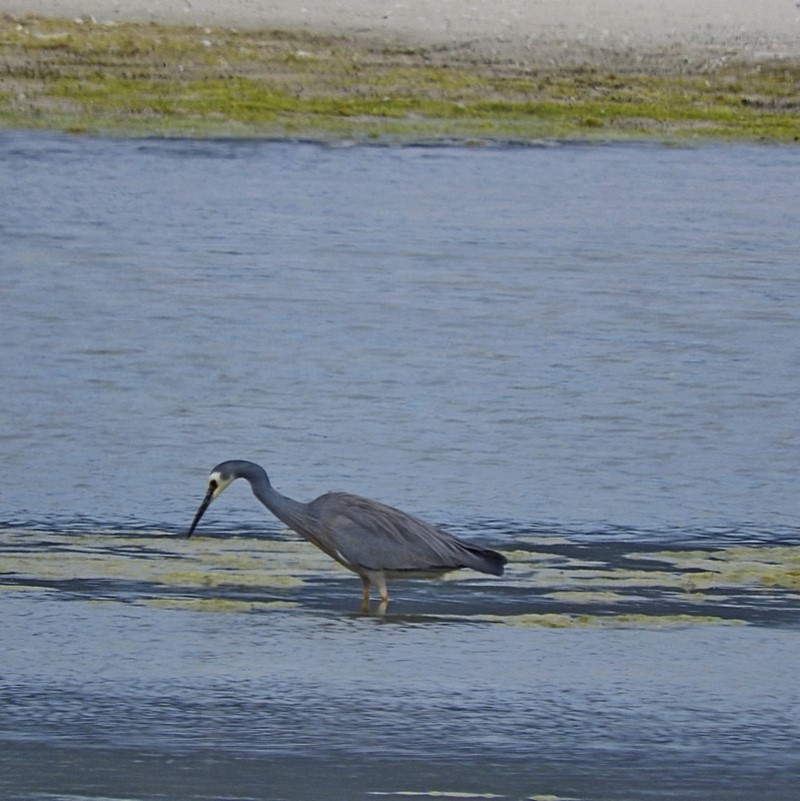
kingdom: Animalia
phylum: Chordata
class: Aves
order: Pelecaniformes
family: Ardeidae
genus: Egretta
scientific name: Egretta novaehollandiae
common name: White-faced heron
